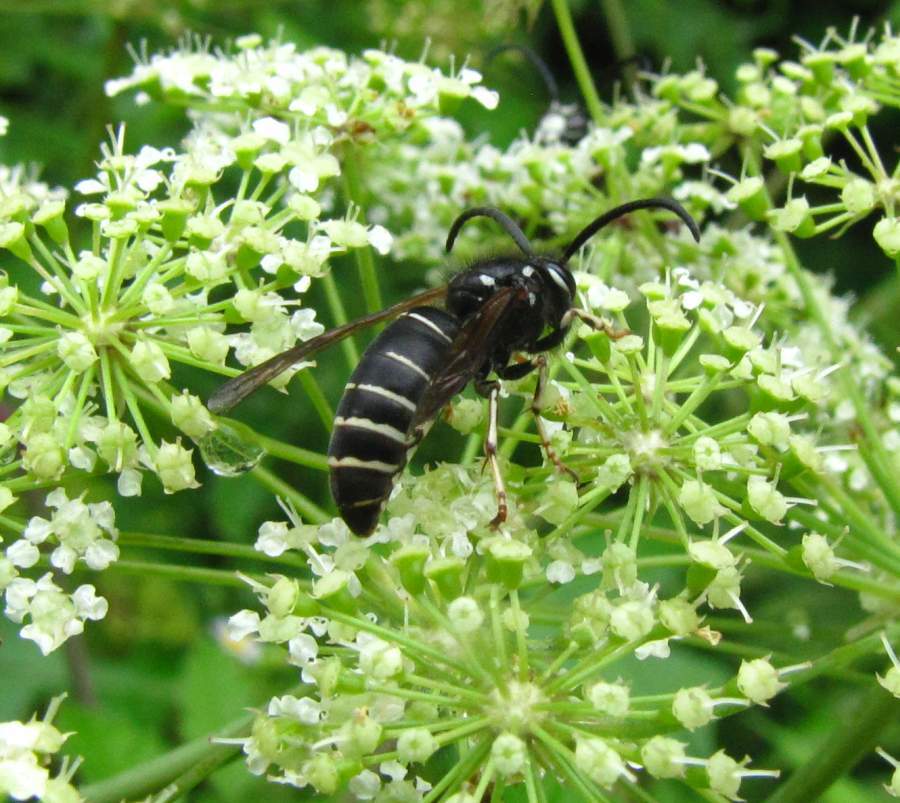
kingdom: Animalia
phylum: Arthropoda
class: Insecta
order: Hymenoptera
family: Vespidae
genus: Dolichovespula
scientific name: Dolichovespula adulterina
